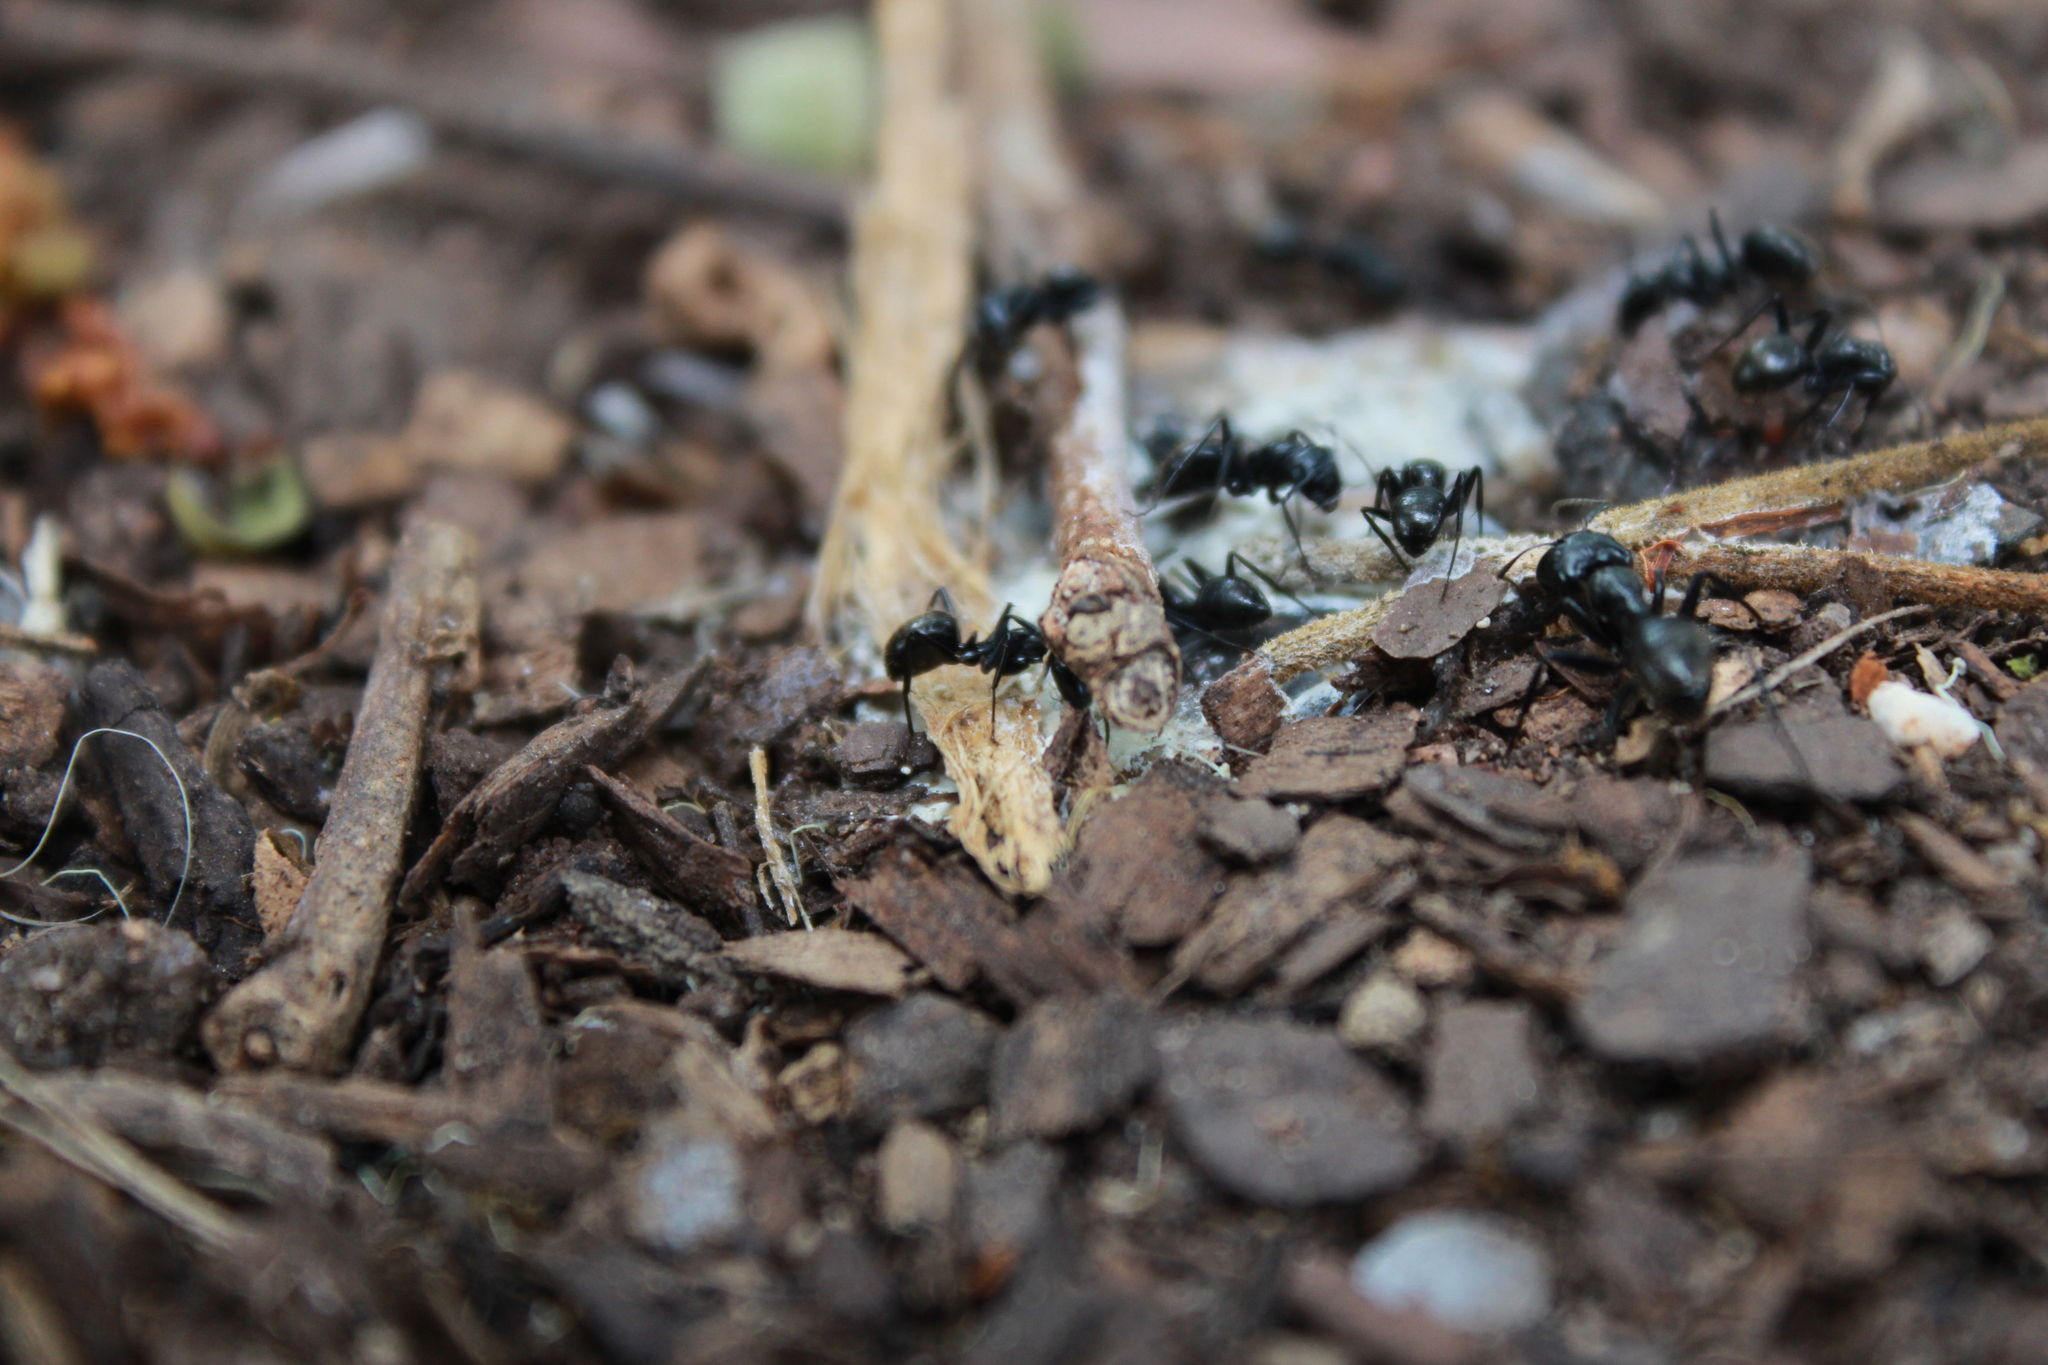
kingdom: Animalia
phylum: Arthropoda
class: Insecta
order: Hymenoptera
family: Formicidae
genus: Camponotus
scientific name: Camponotus arminius
